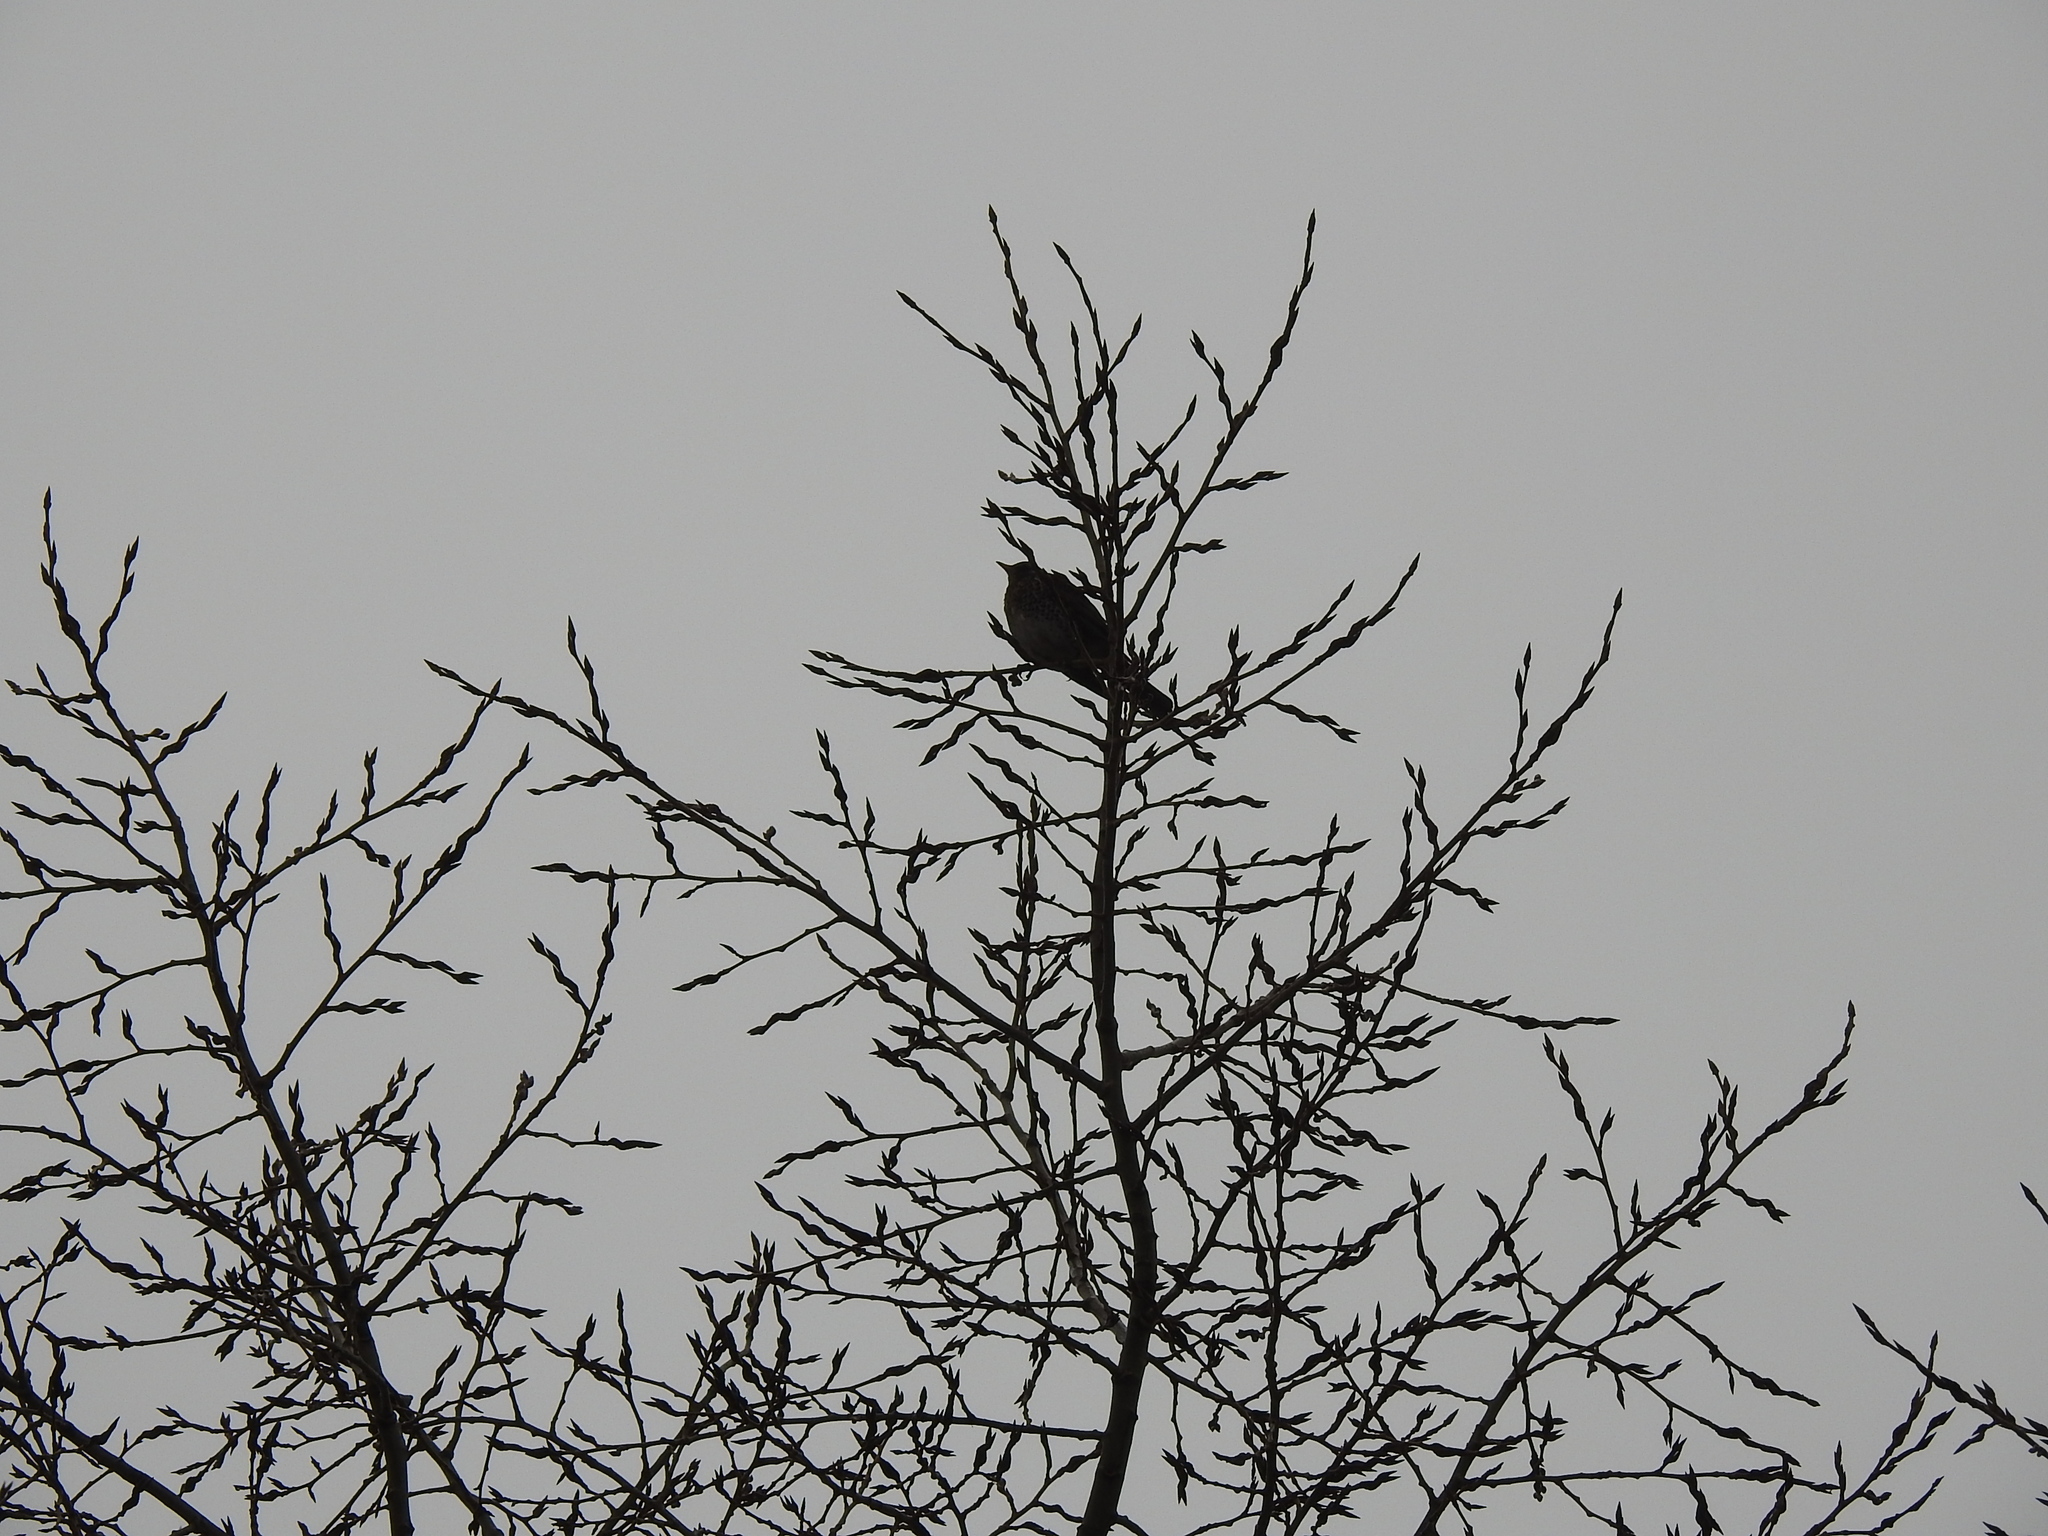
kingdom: Animalia
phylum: Chordata
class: Aves
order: Passeriformes
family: Turdidae
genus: Turdus
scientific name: Turdus pilaris
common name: Fieldfare
